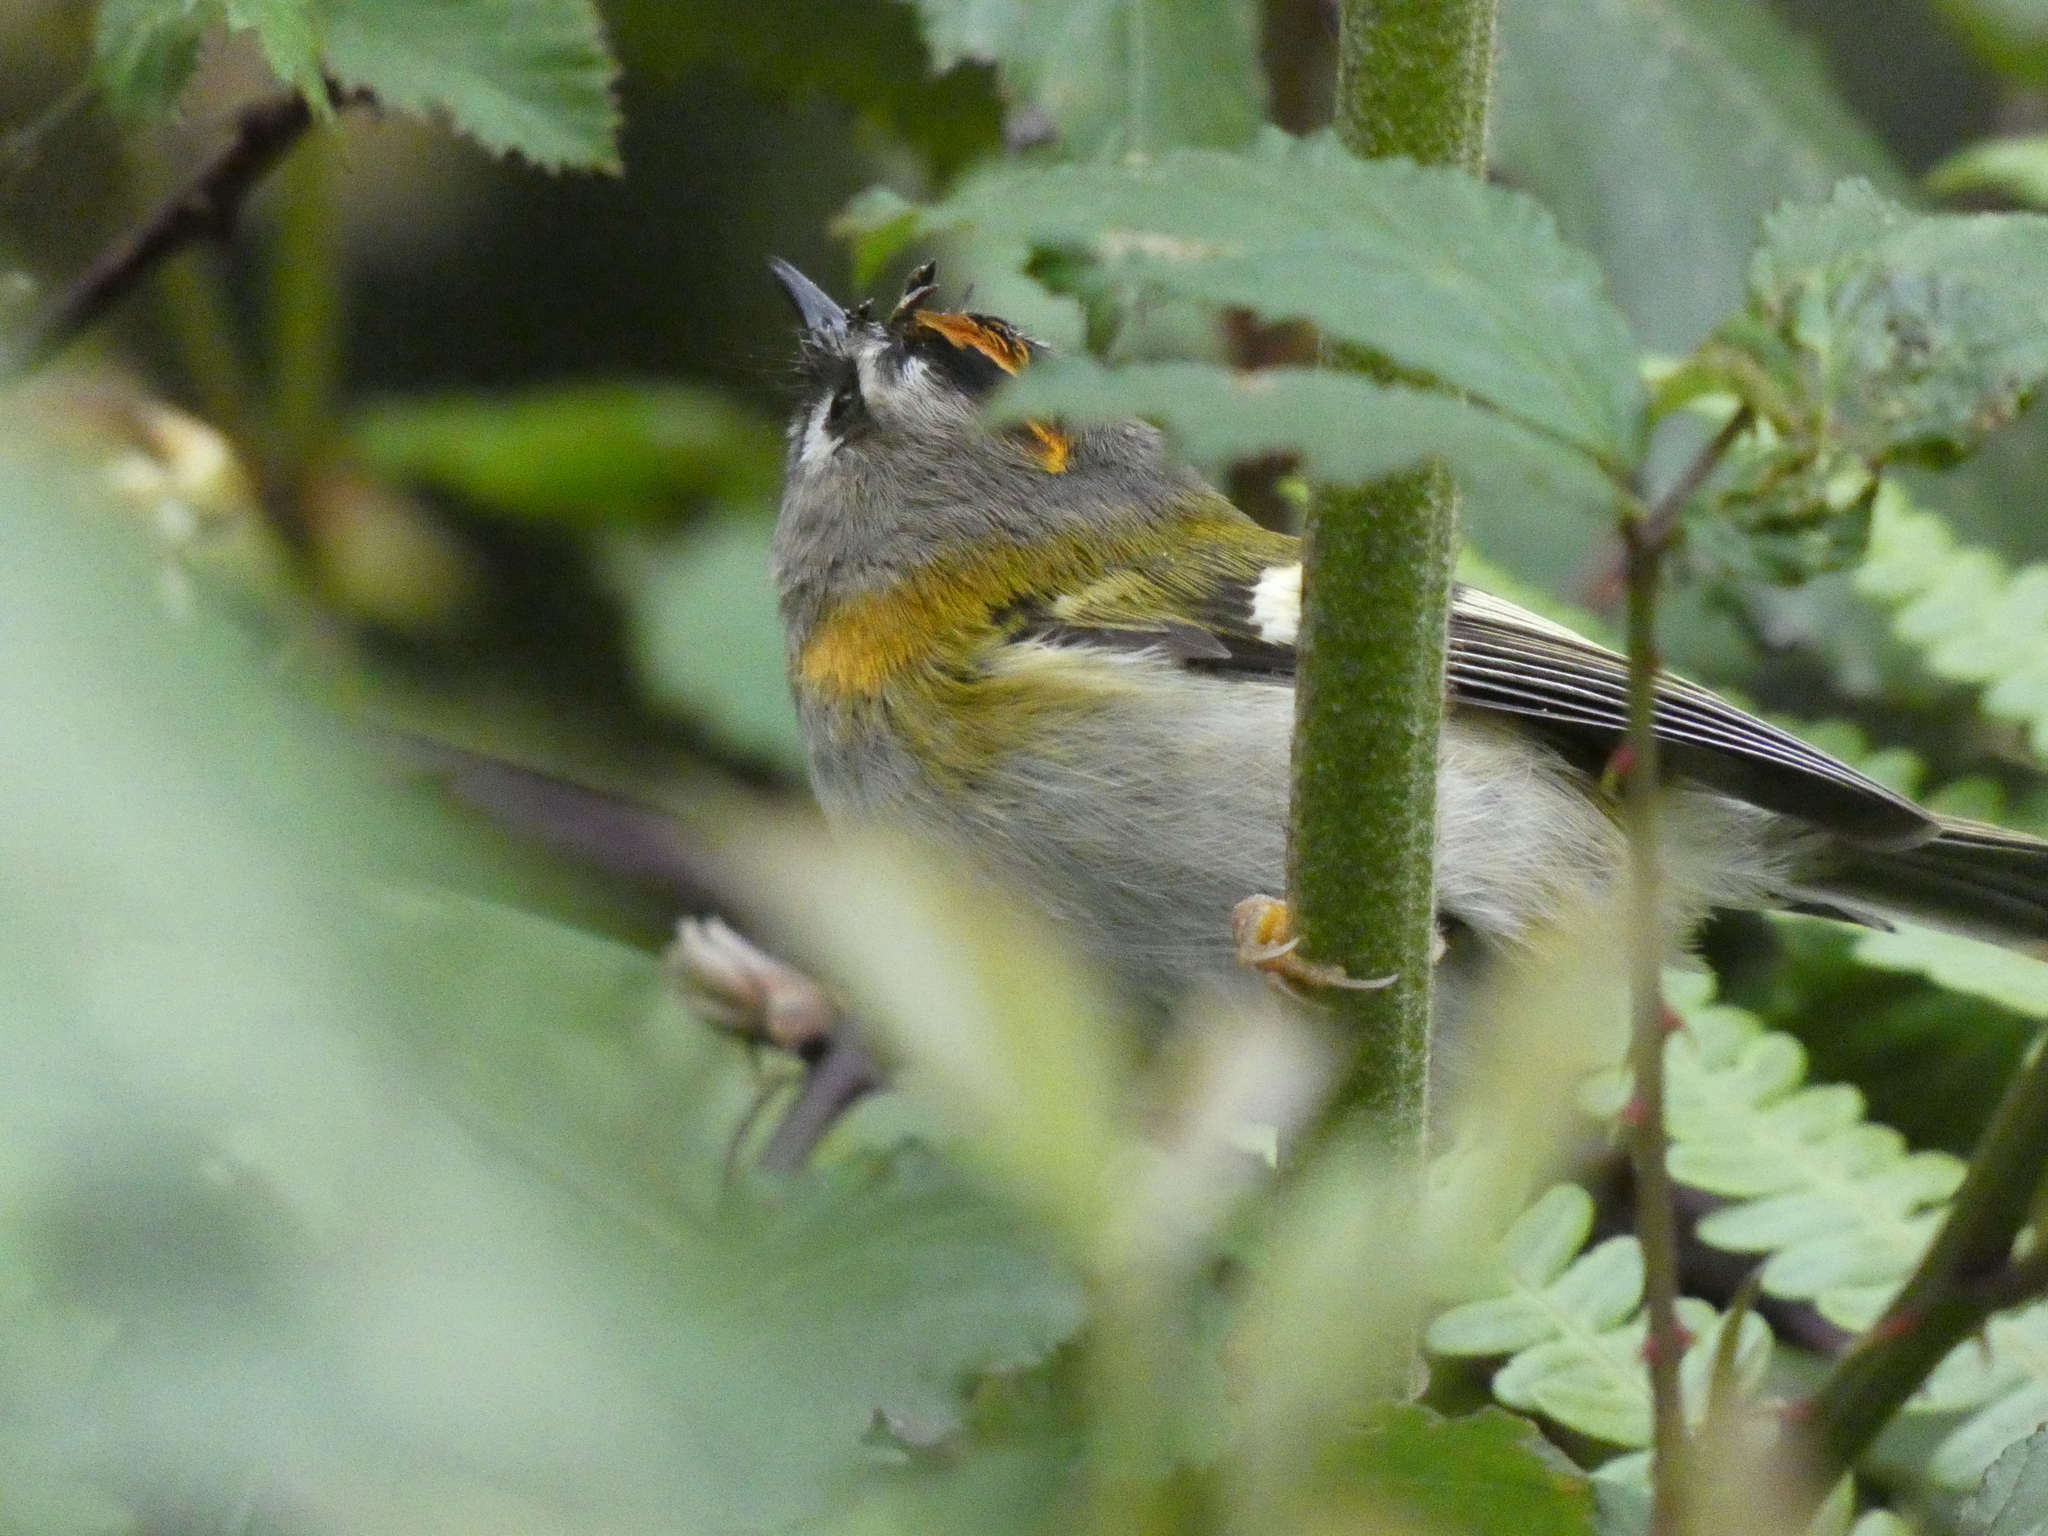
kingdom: Animalia
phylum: Chordata
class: Aves
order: Passeriformes
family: Regulidae
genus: Regulus
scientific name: Regulus madeirensis
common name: Madeira firecrest
